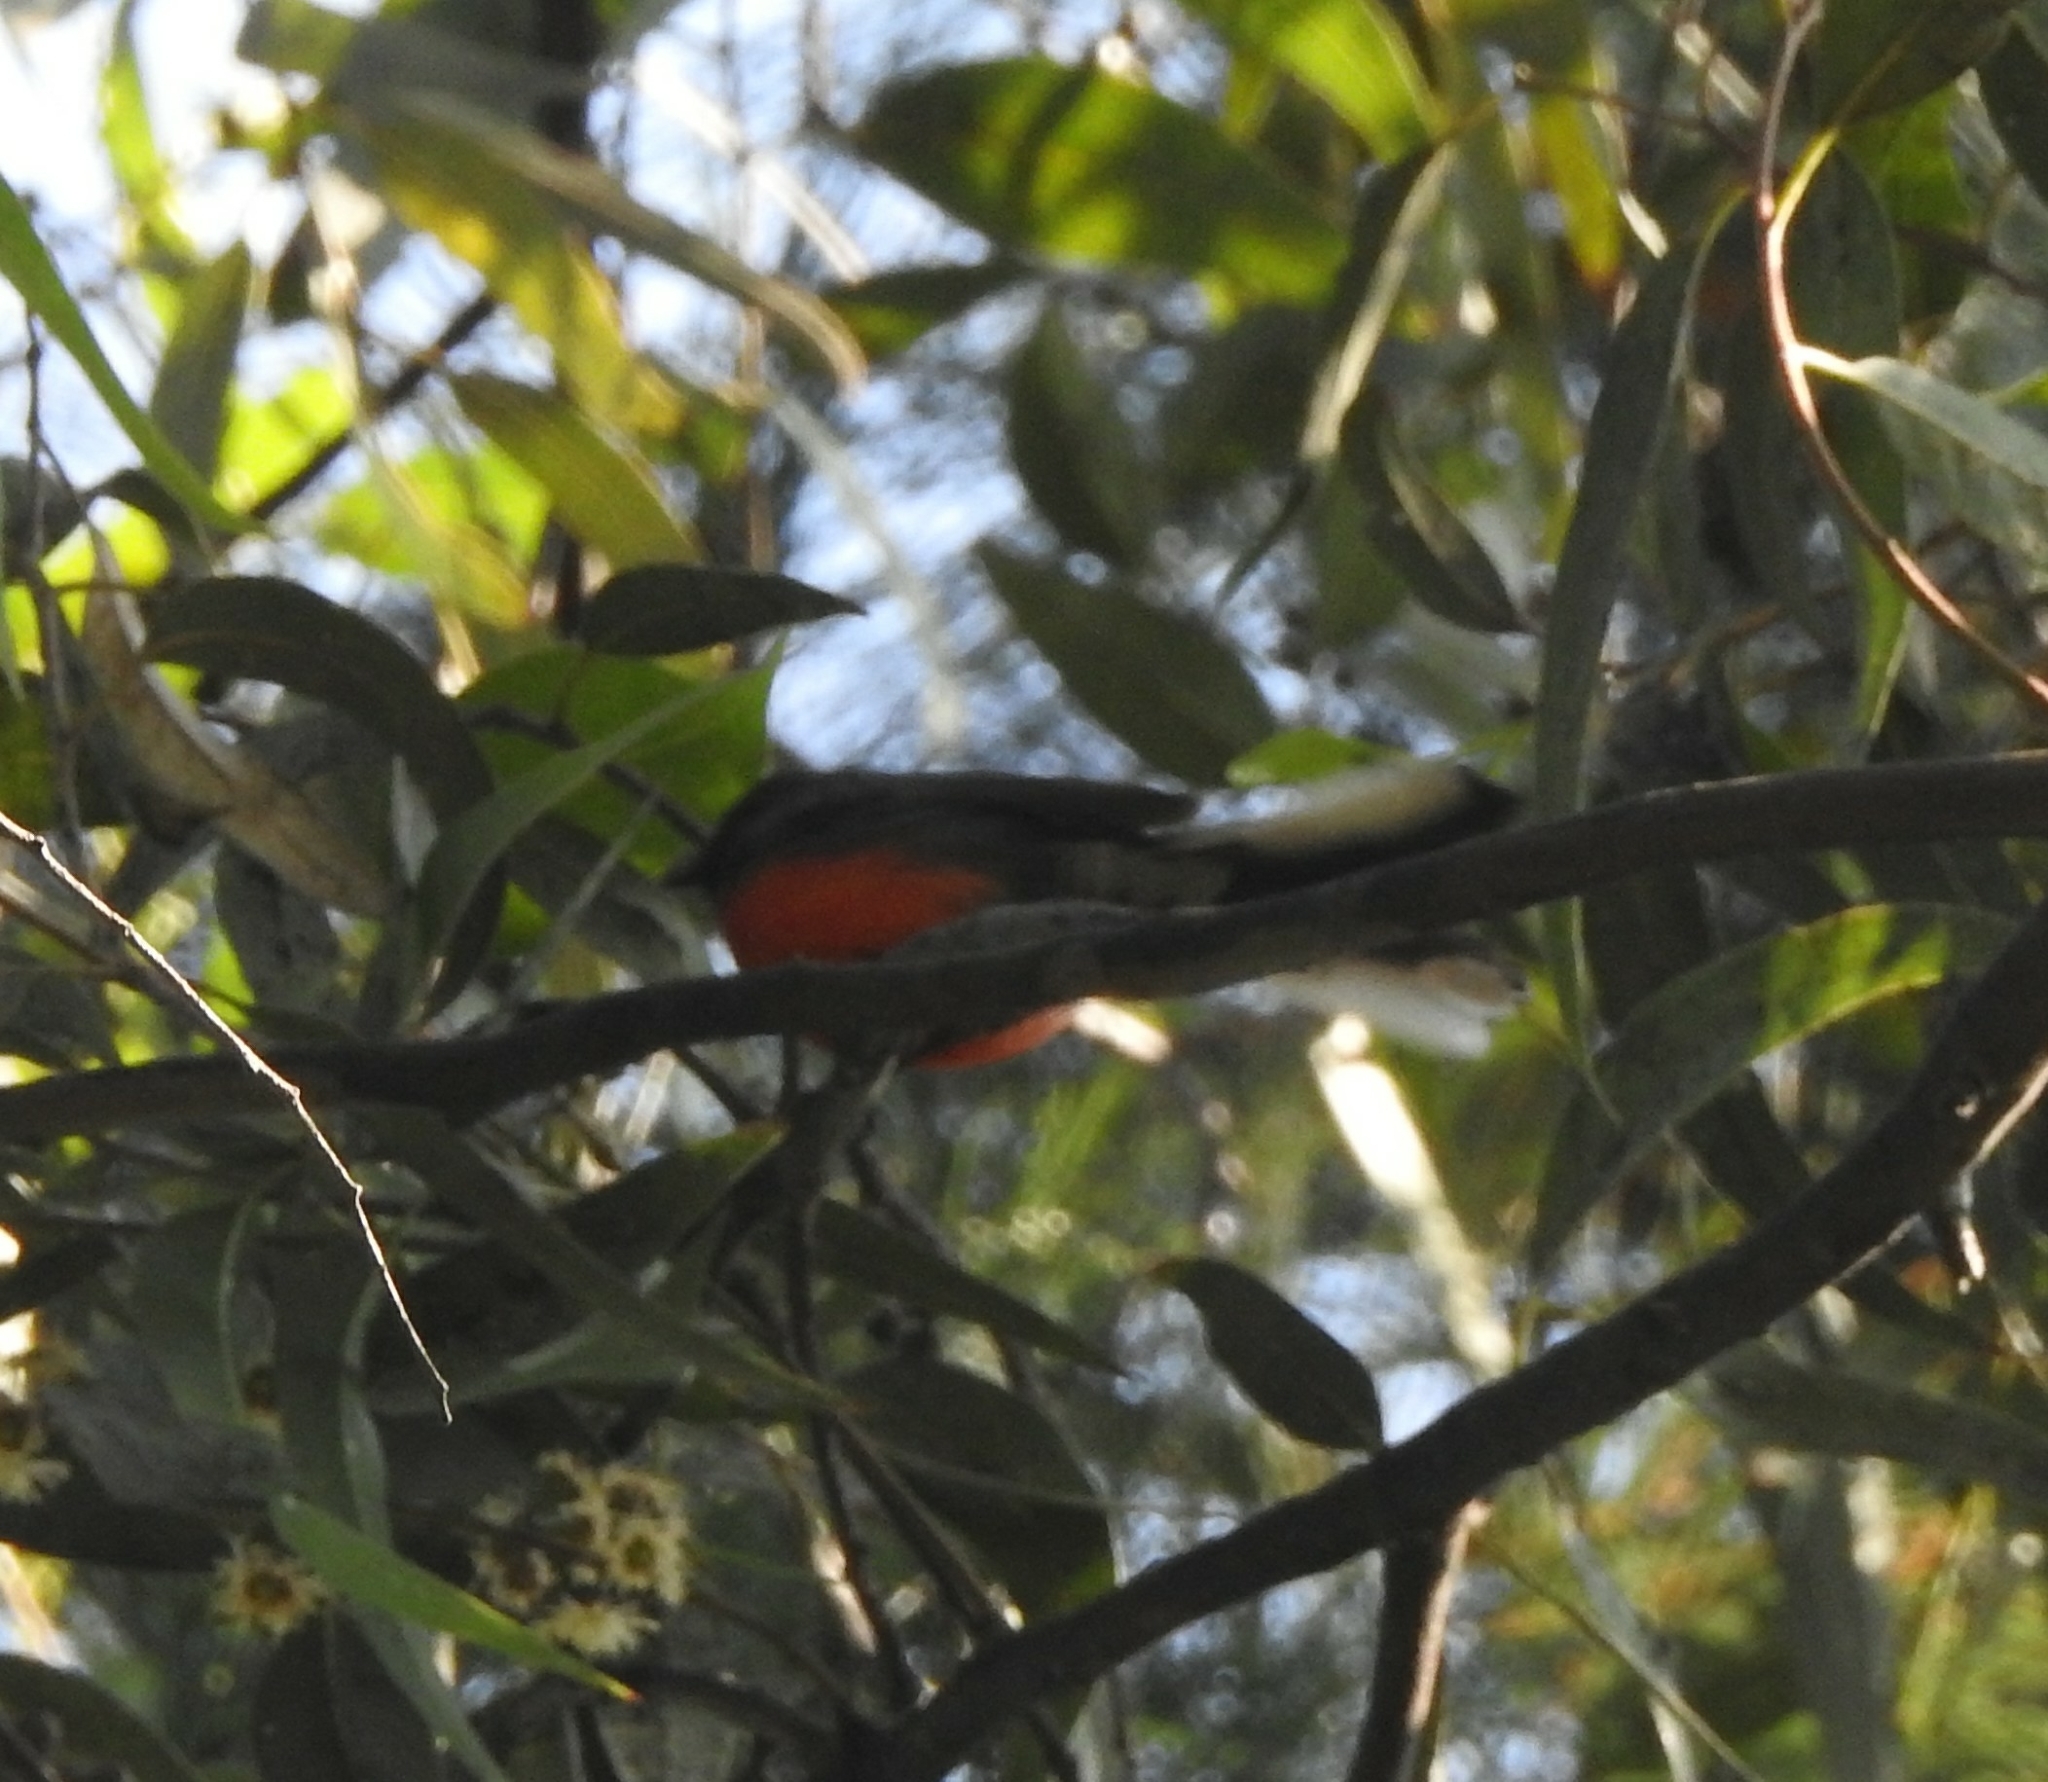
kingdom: Animalia
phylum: Chordata
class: Aves
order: Passeriformes
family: Parulidae
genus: Myioborus
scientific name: Myioborus miniatus
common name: Slate-throated redstart
